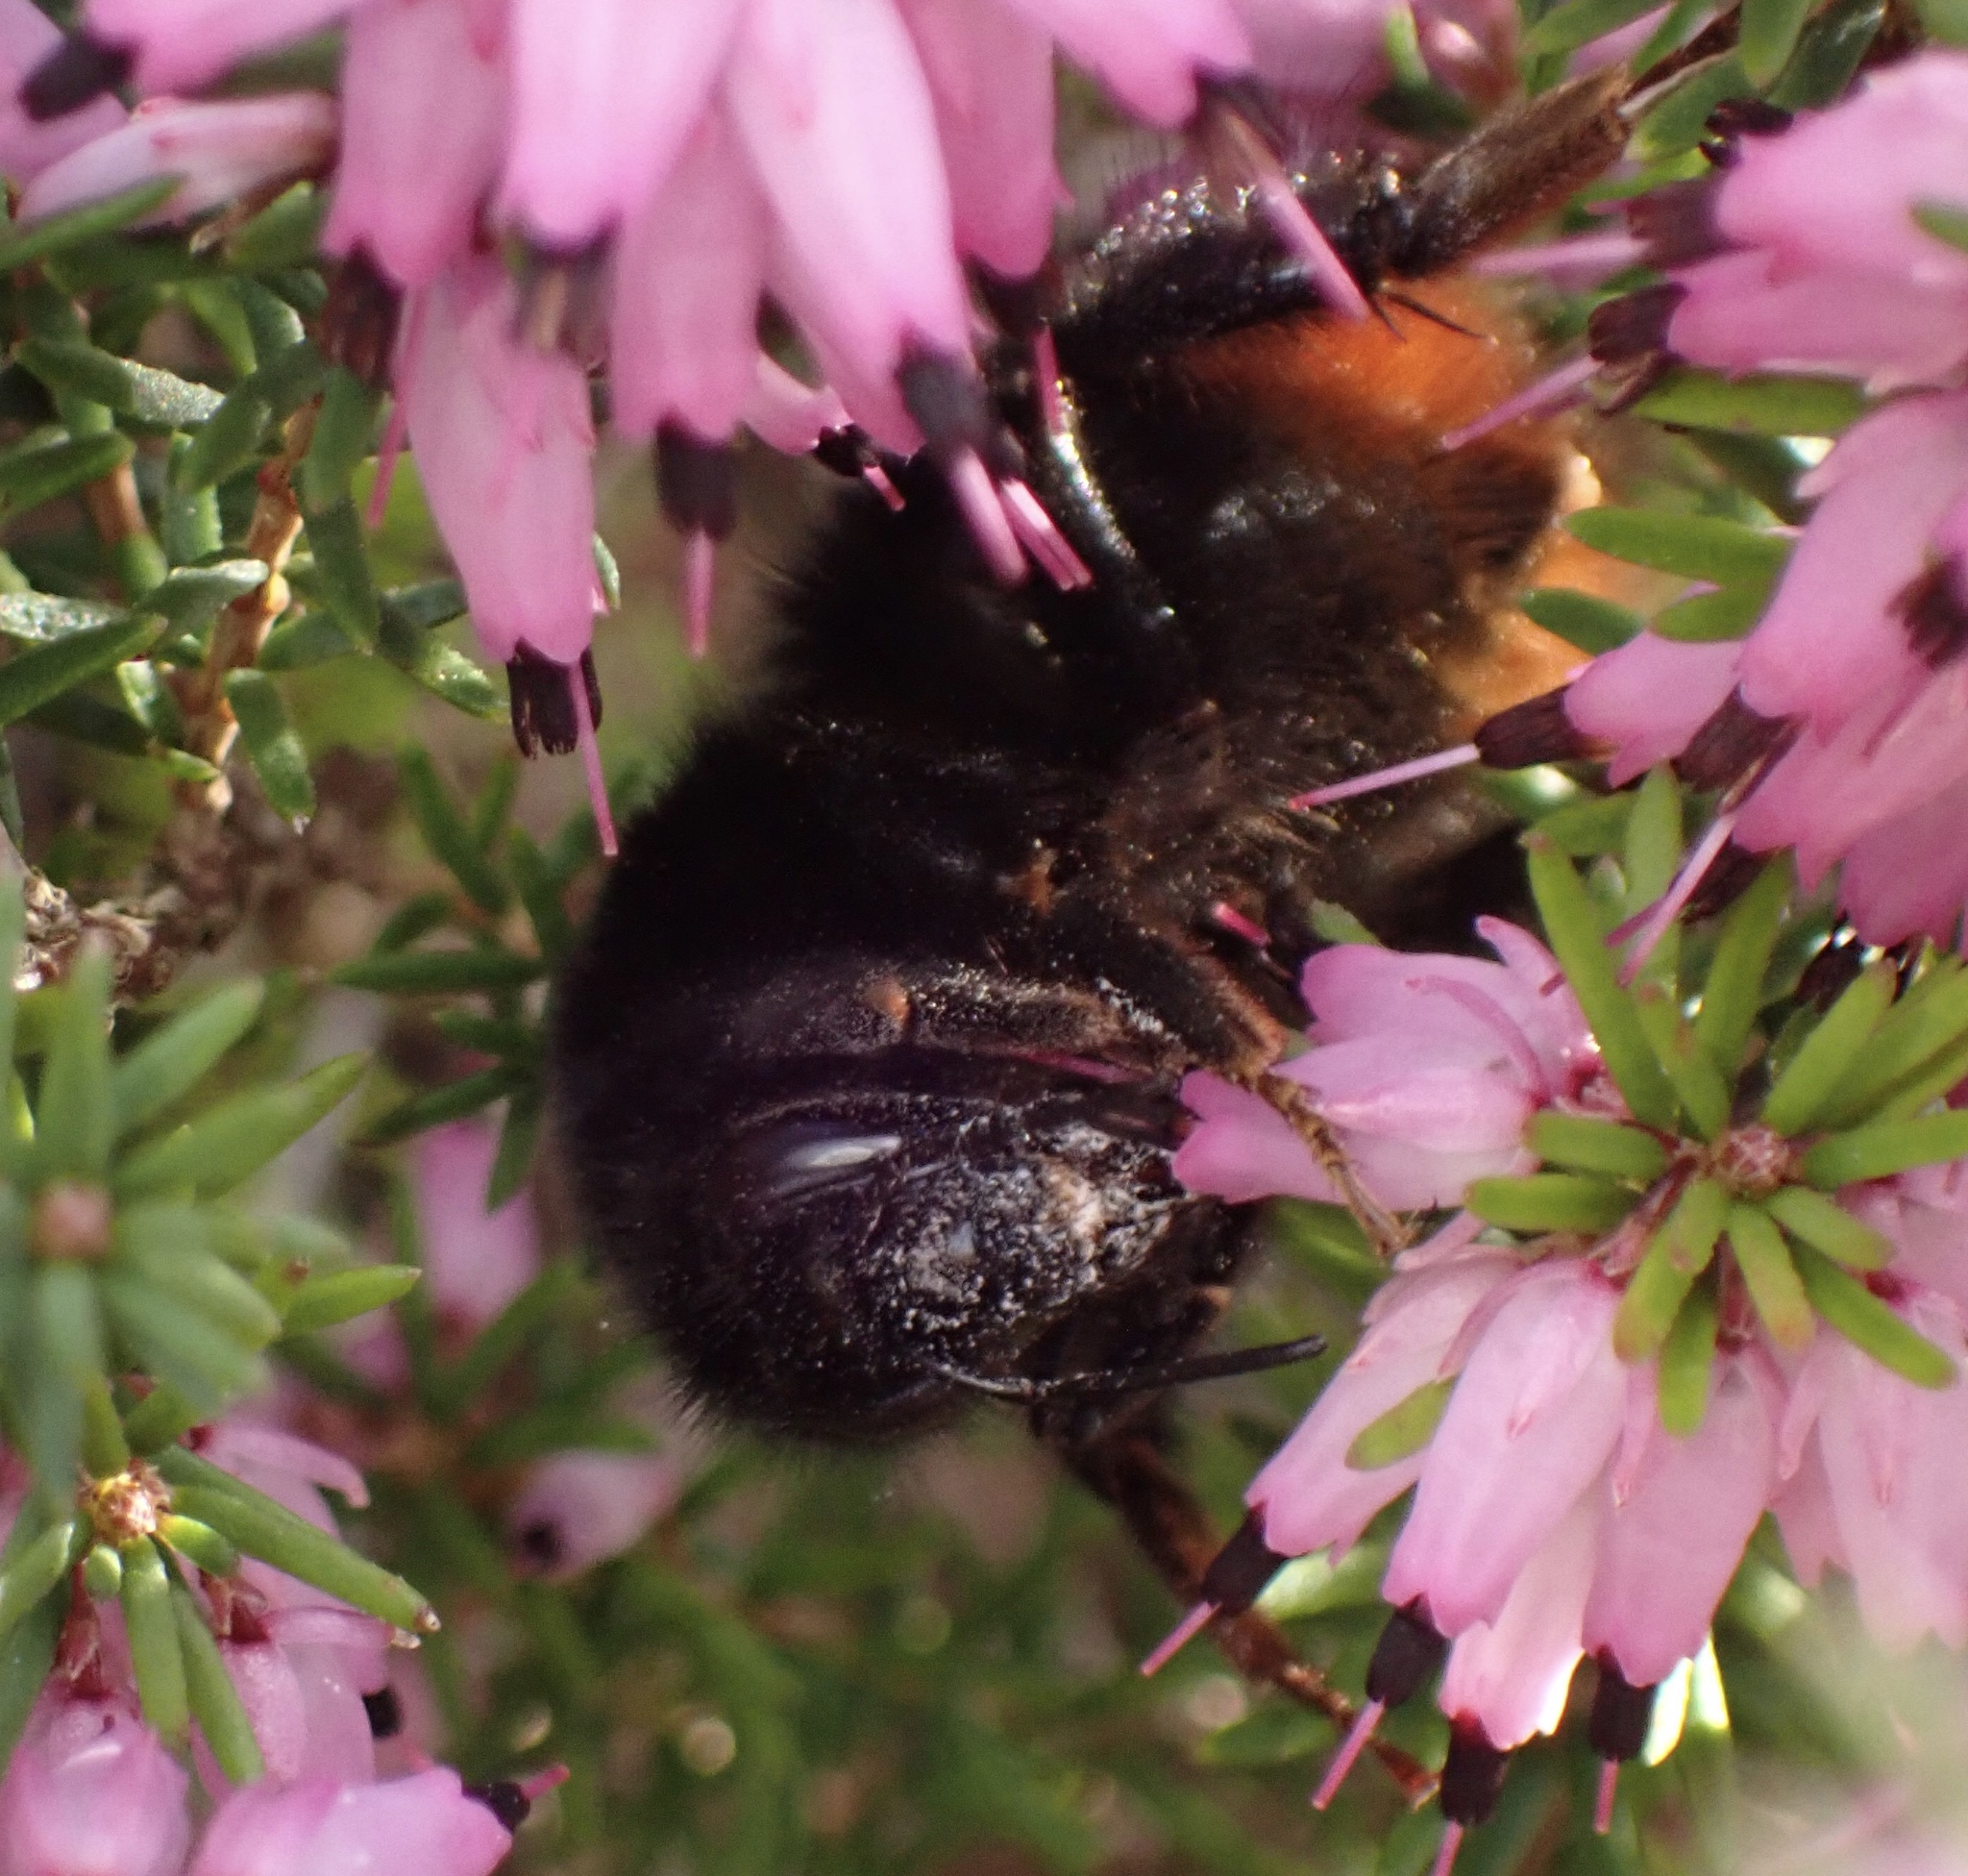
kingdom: Animalia
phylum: Arthropoda
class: Insecta
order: Hymenoptera
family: Apidae
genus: Bombus
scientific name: Bombus lapidarius
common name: Large red-tailed humble-bee
